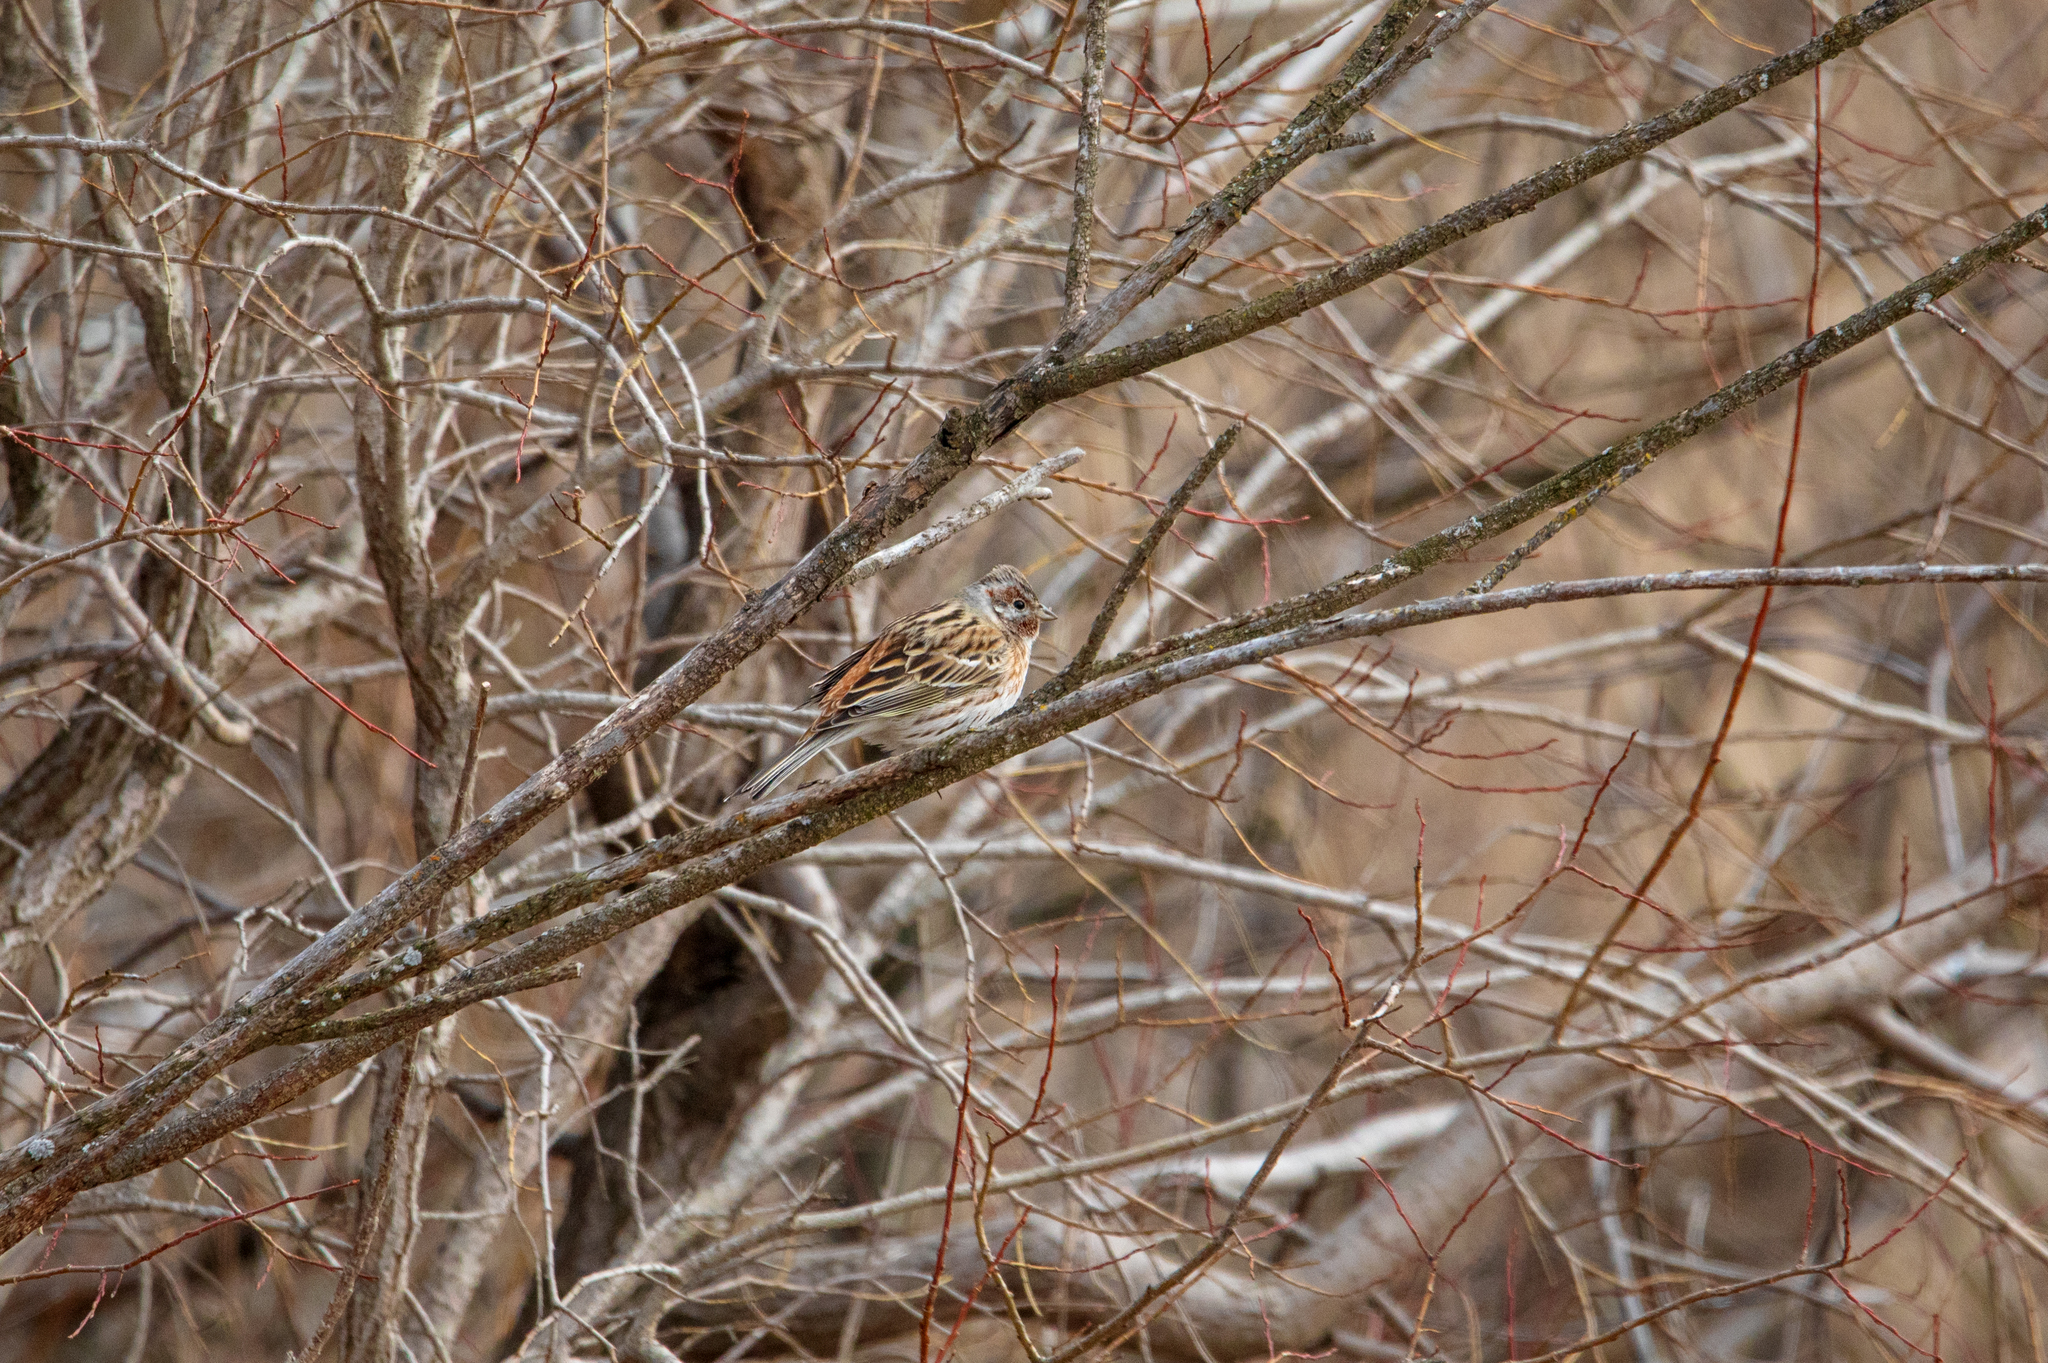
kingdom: Animalia
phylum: Chordata
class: Aves
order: Passeriformes
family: Emberizidae
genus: Emberiza
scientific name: Emberiza
